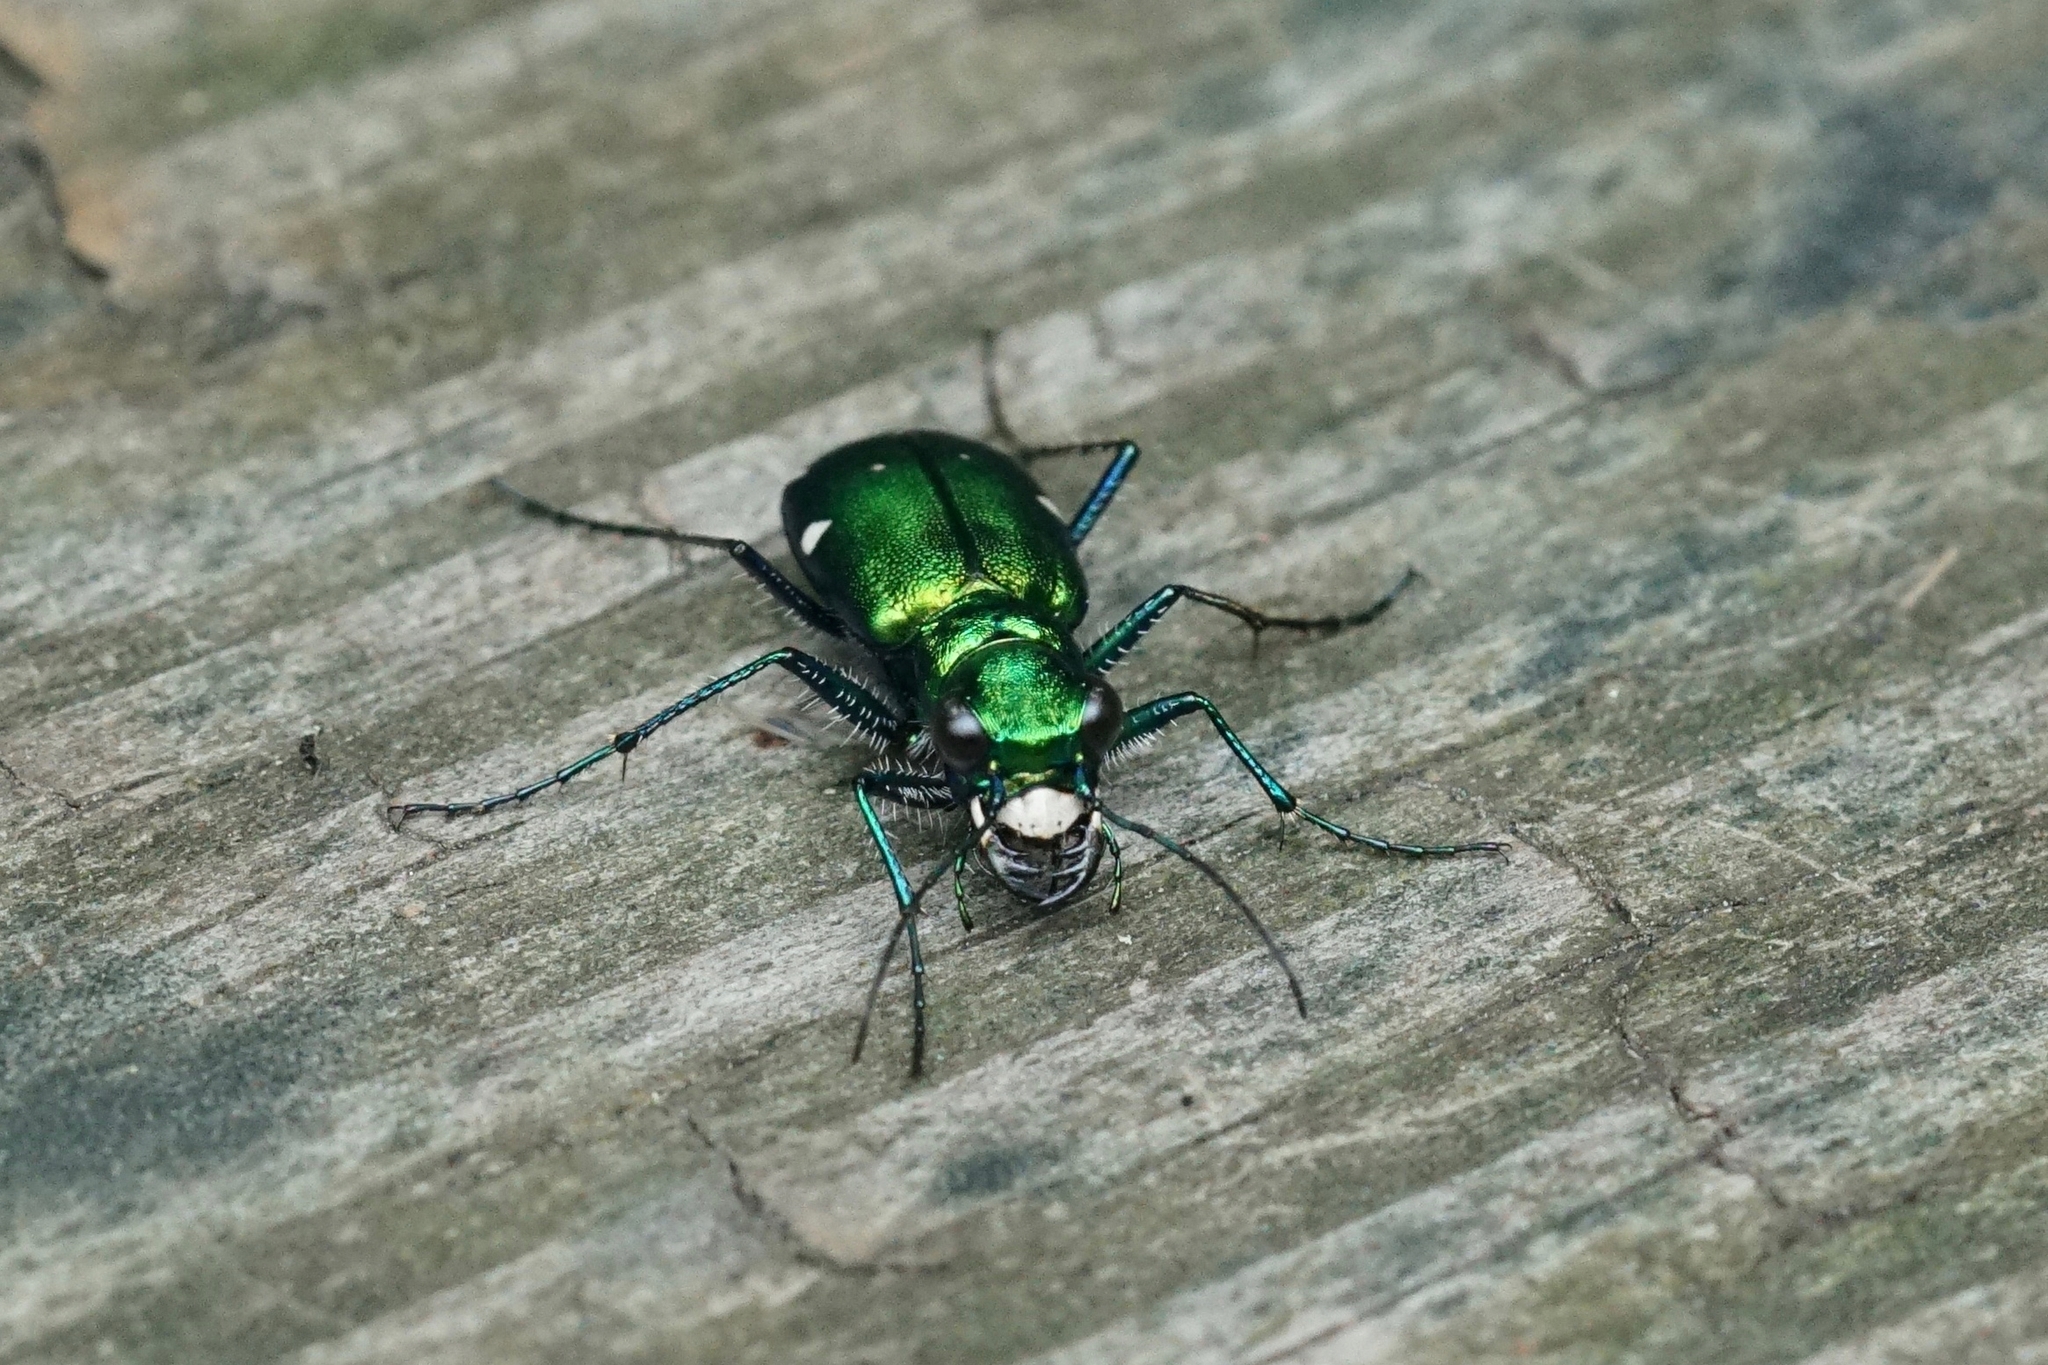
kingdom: Animalia
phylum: Arthropoda
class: Insecta
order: Coleoptera
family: Carabidae
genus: Cicindela
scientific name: Cicindela sexguttata
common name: Six-spotted tiger beetle
